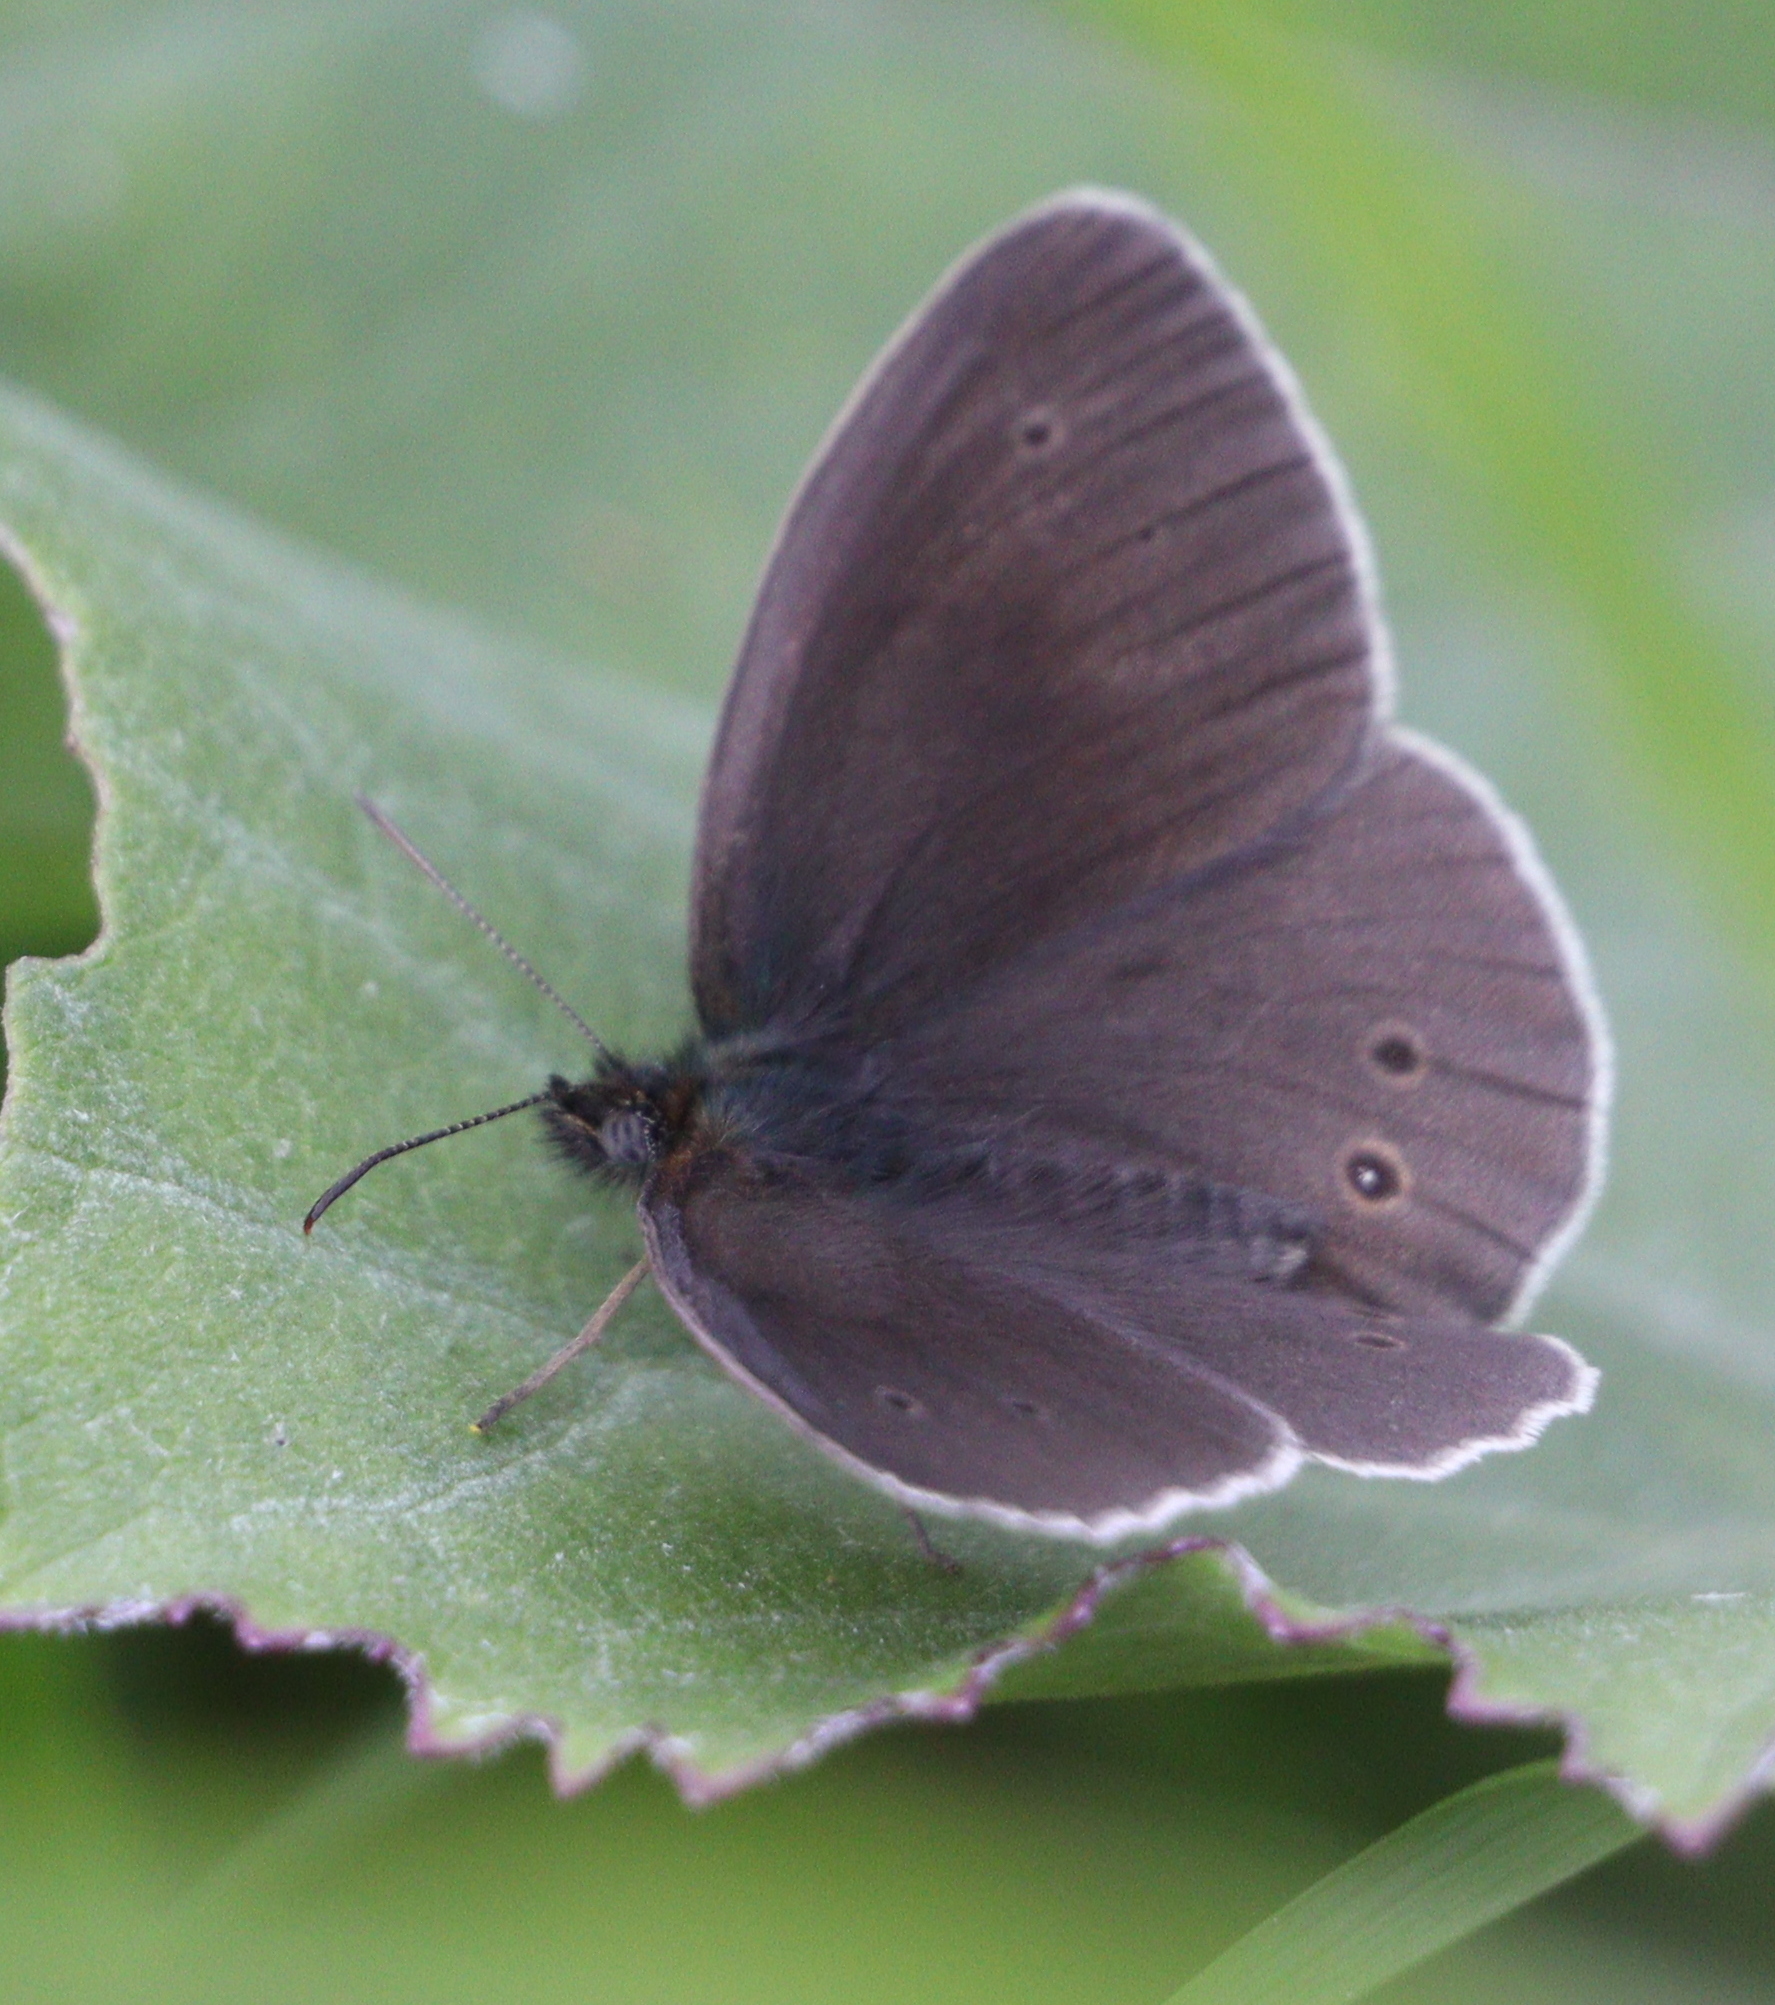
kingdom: Animalia
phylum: Arthropoda
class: Insecta
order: Lepidoptera
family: Nymphalidae
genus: Aphantopus
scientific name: Aphantopus hyperantus
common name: Ringlet
